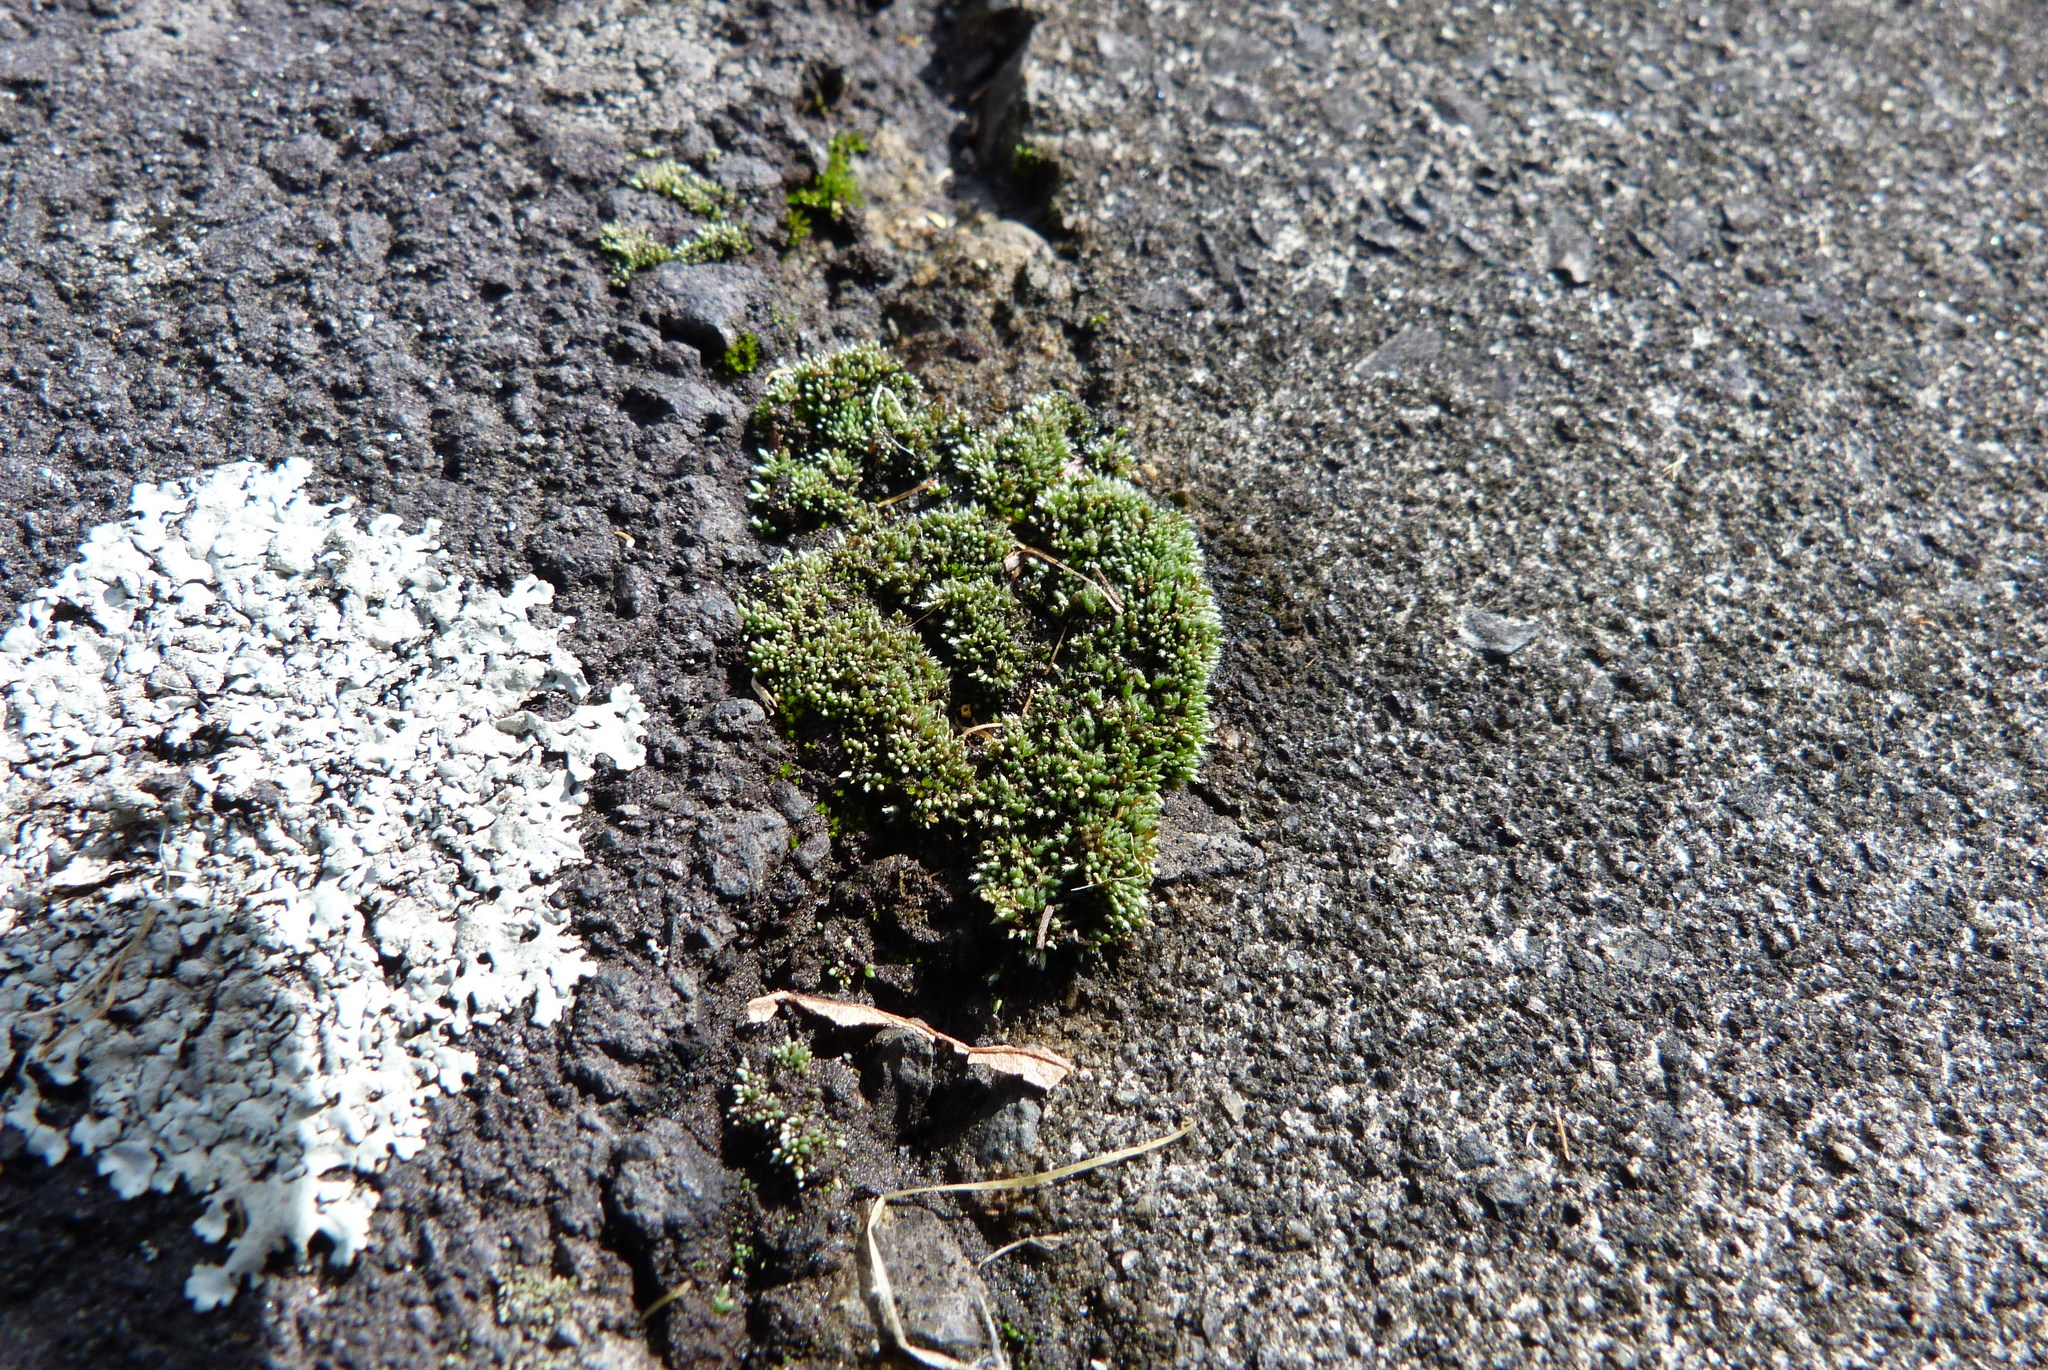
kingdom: Plantae
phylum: Bryophyta
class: Bryopsida
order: Bryales
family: Bryaceae
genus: Bryum
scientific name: Bryum argenteum
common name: Silver-moss
